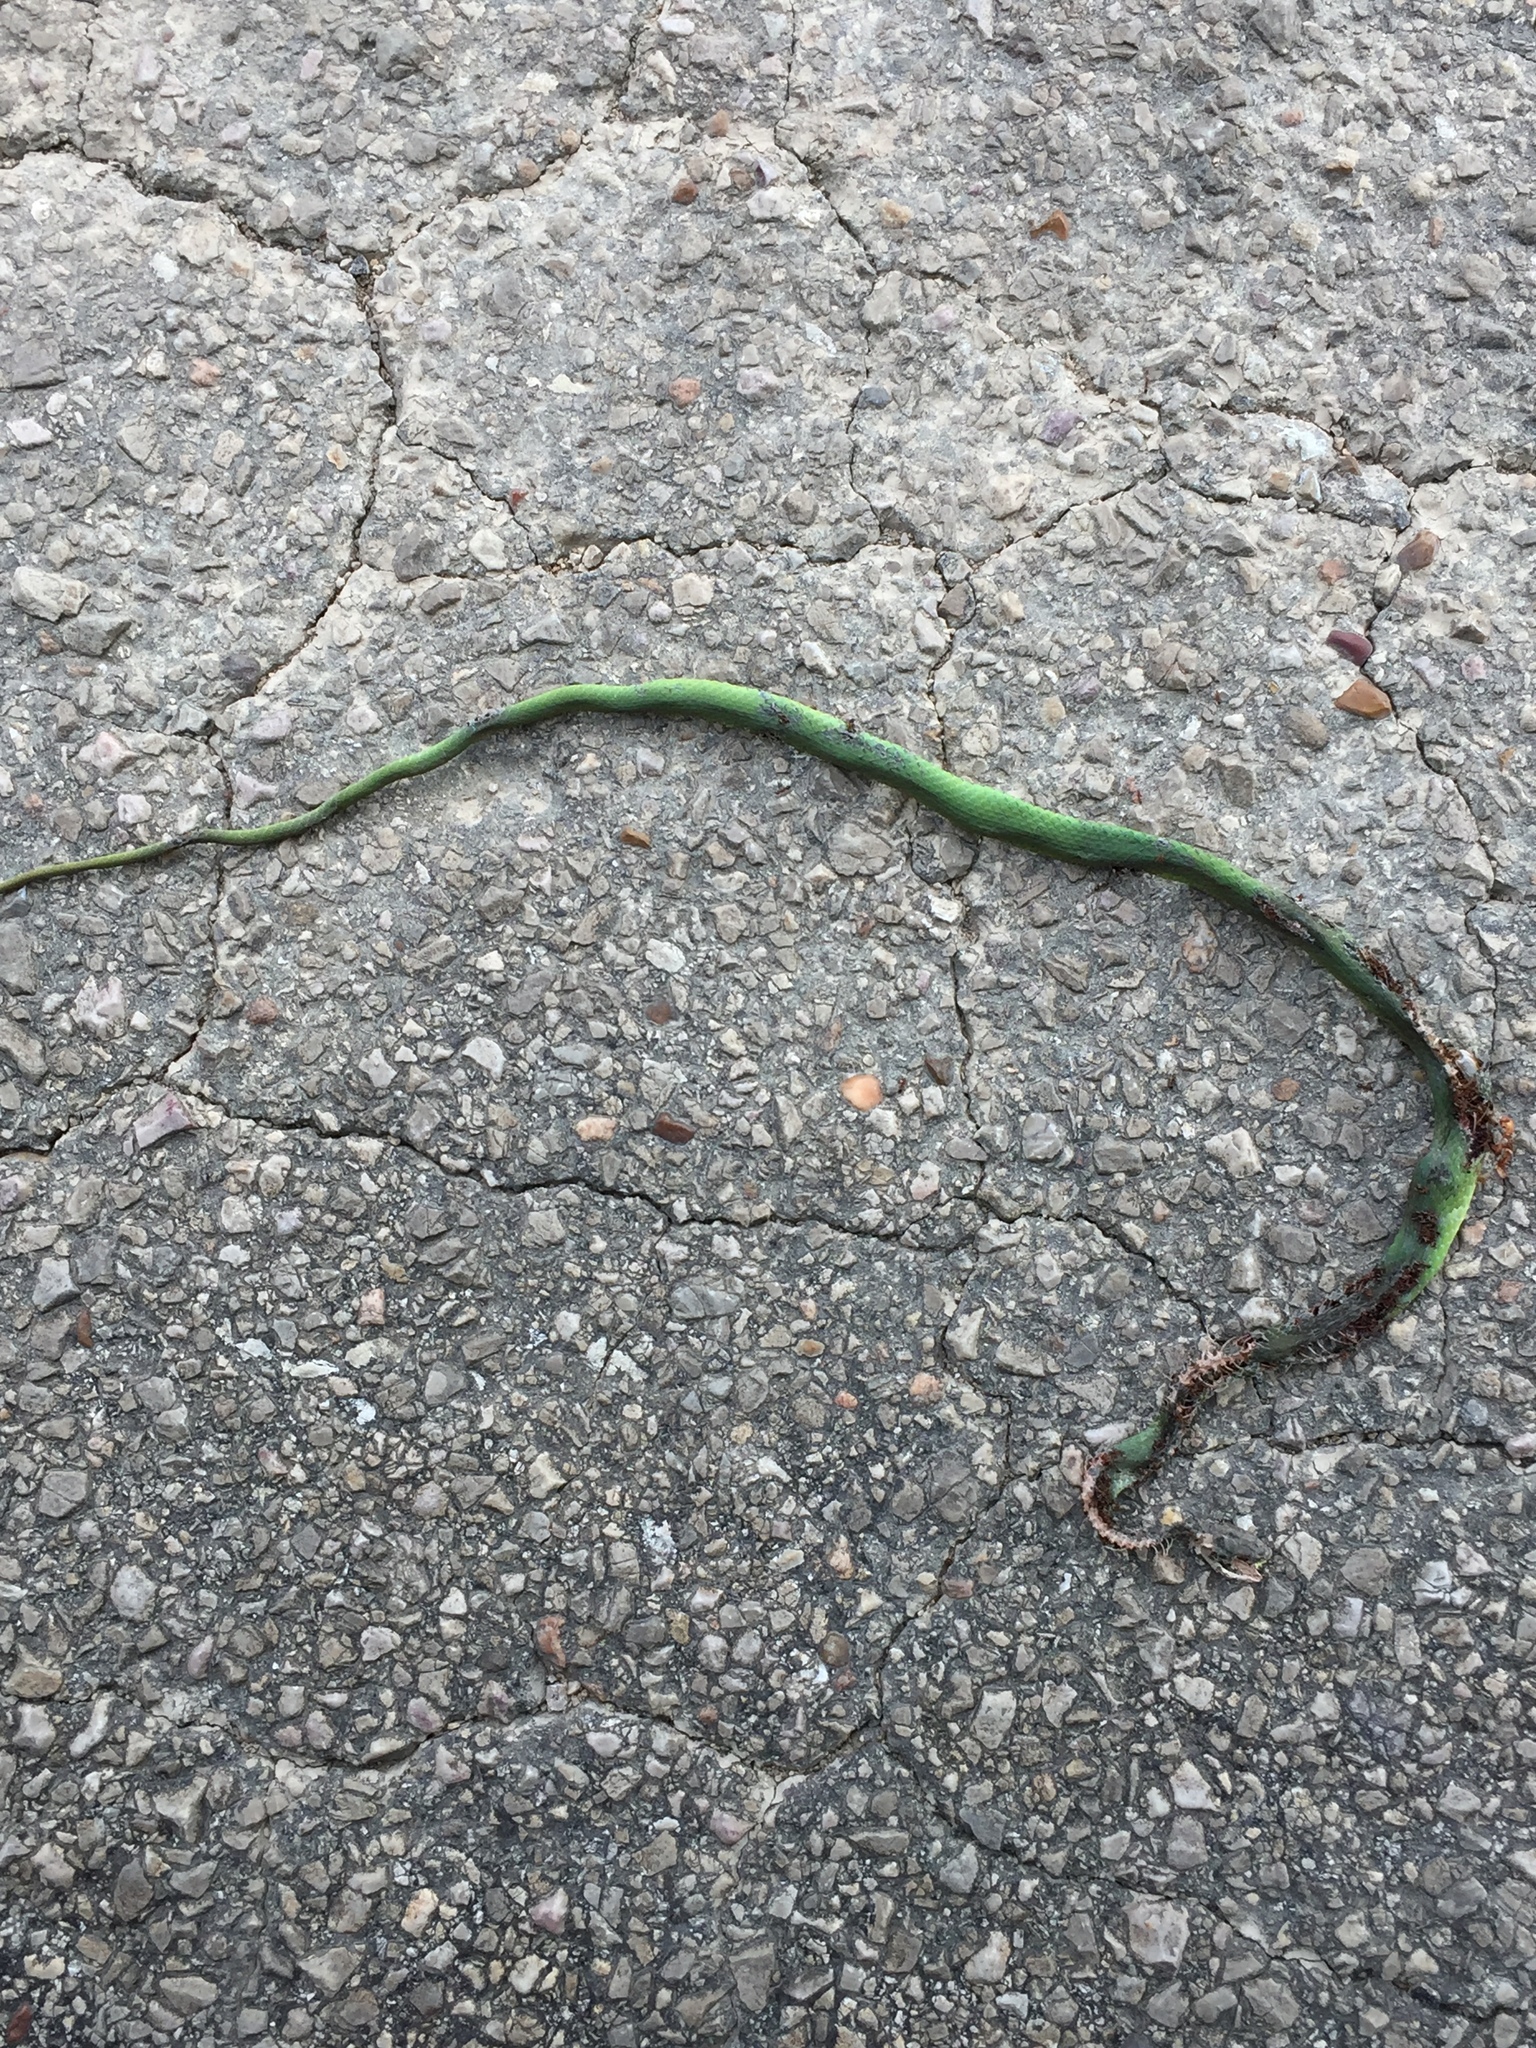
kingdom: Animalia
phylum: Chordata
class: Squamata
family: Colubridae
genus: Opheodrys
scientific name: Opheodrys aestivus
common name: Rough greensnake
